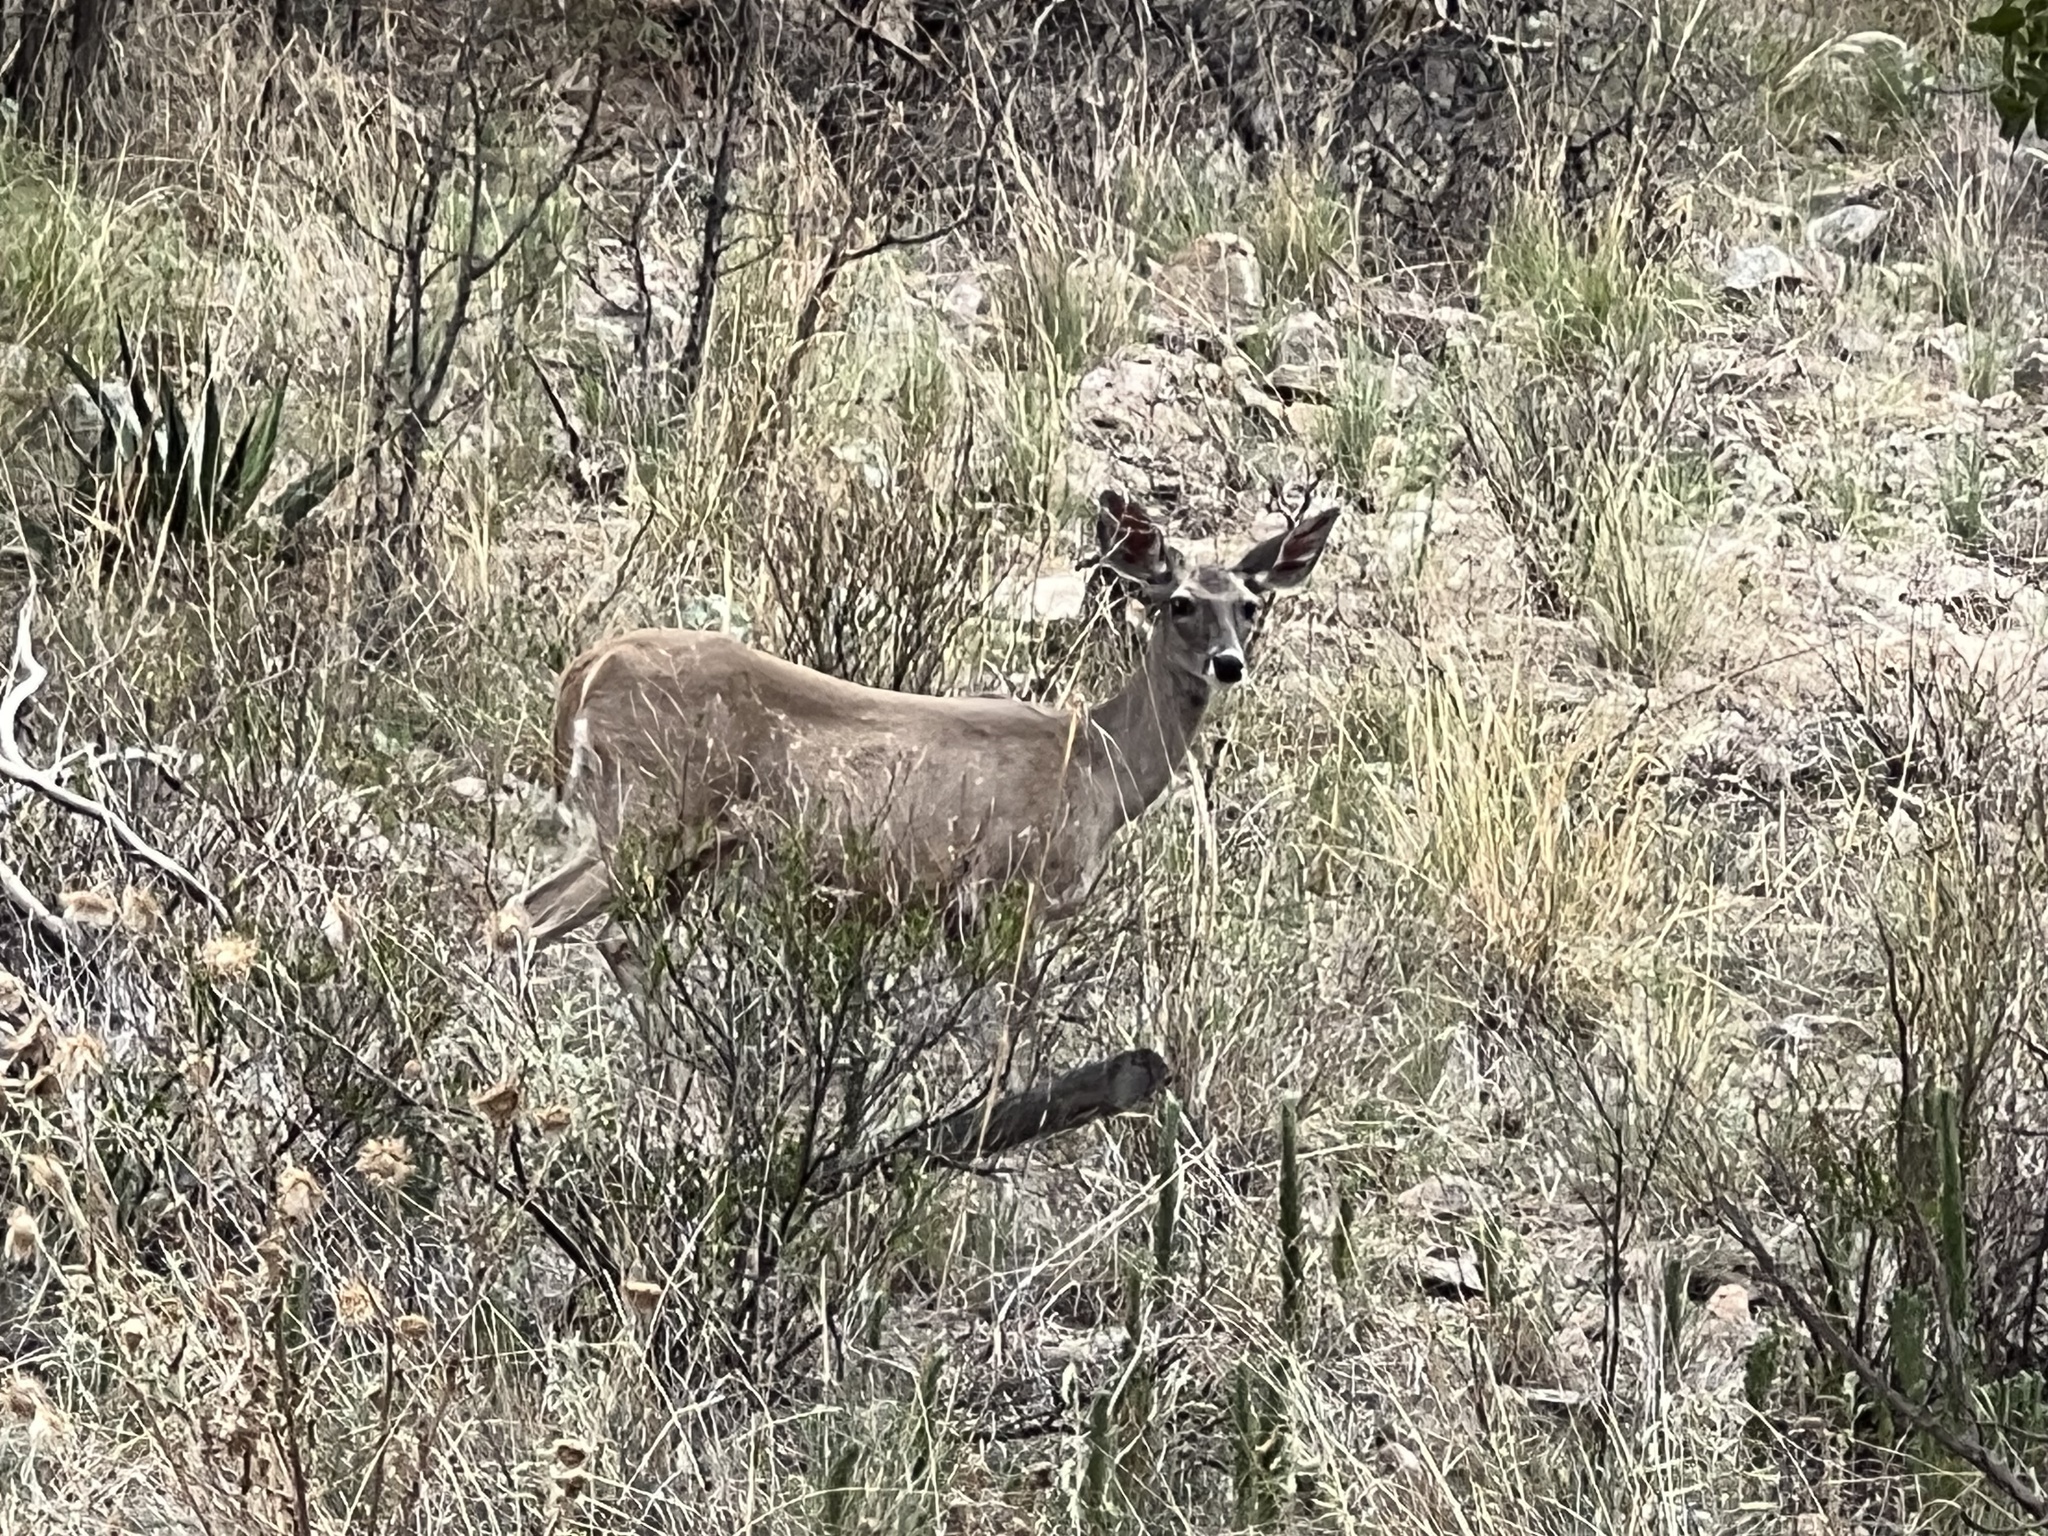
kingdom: Animalia
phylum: Chordata
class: Mammalia
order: Artiodactyla
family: Cervidae
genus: Odocoileus
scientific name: Odocoileus virginianus
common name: White-tailed deer
